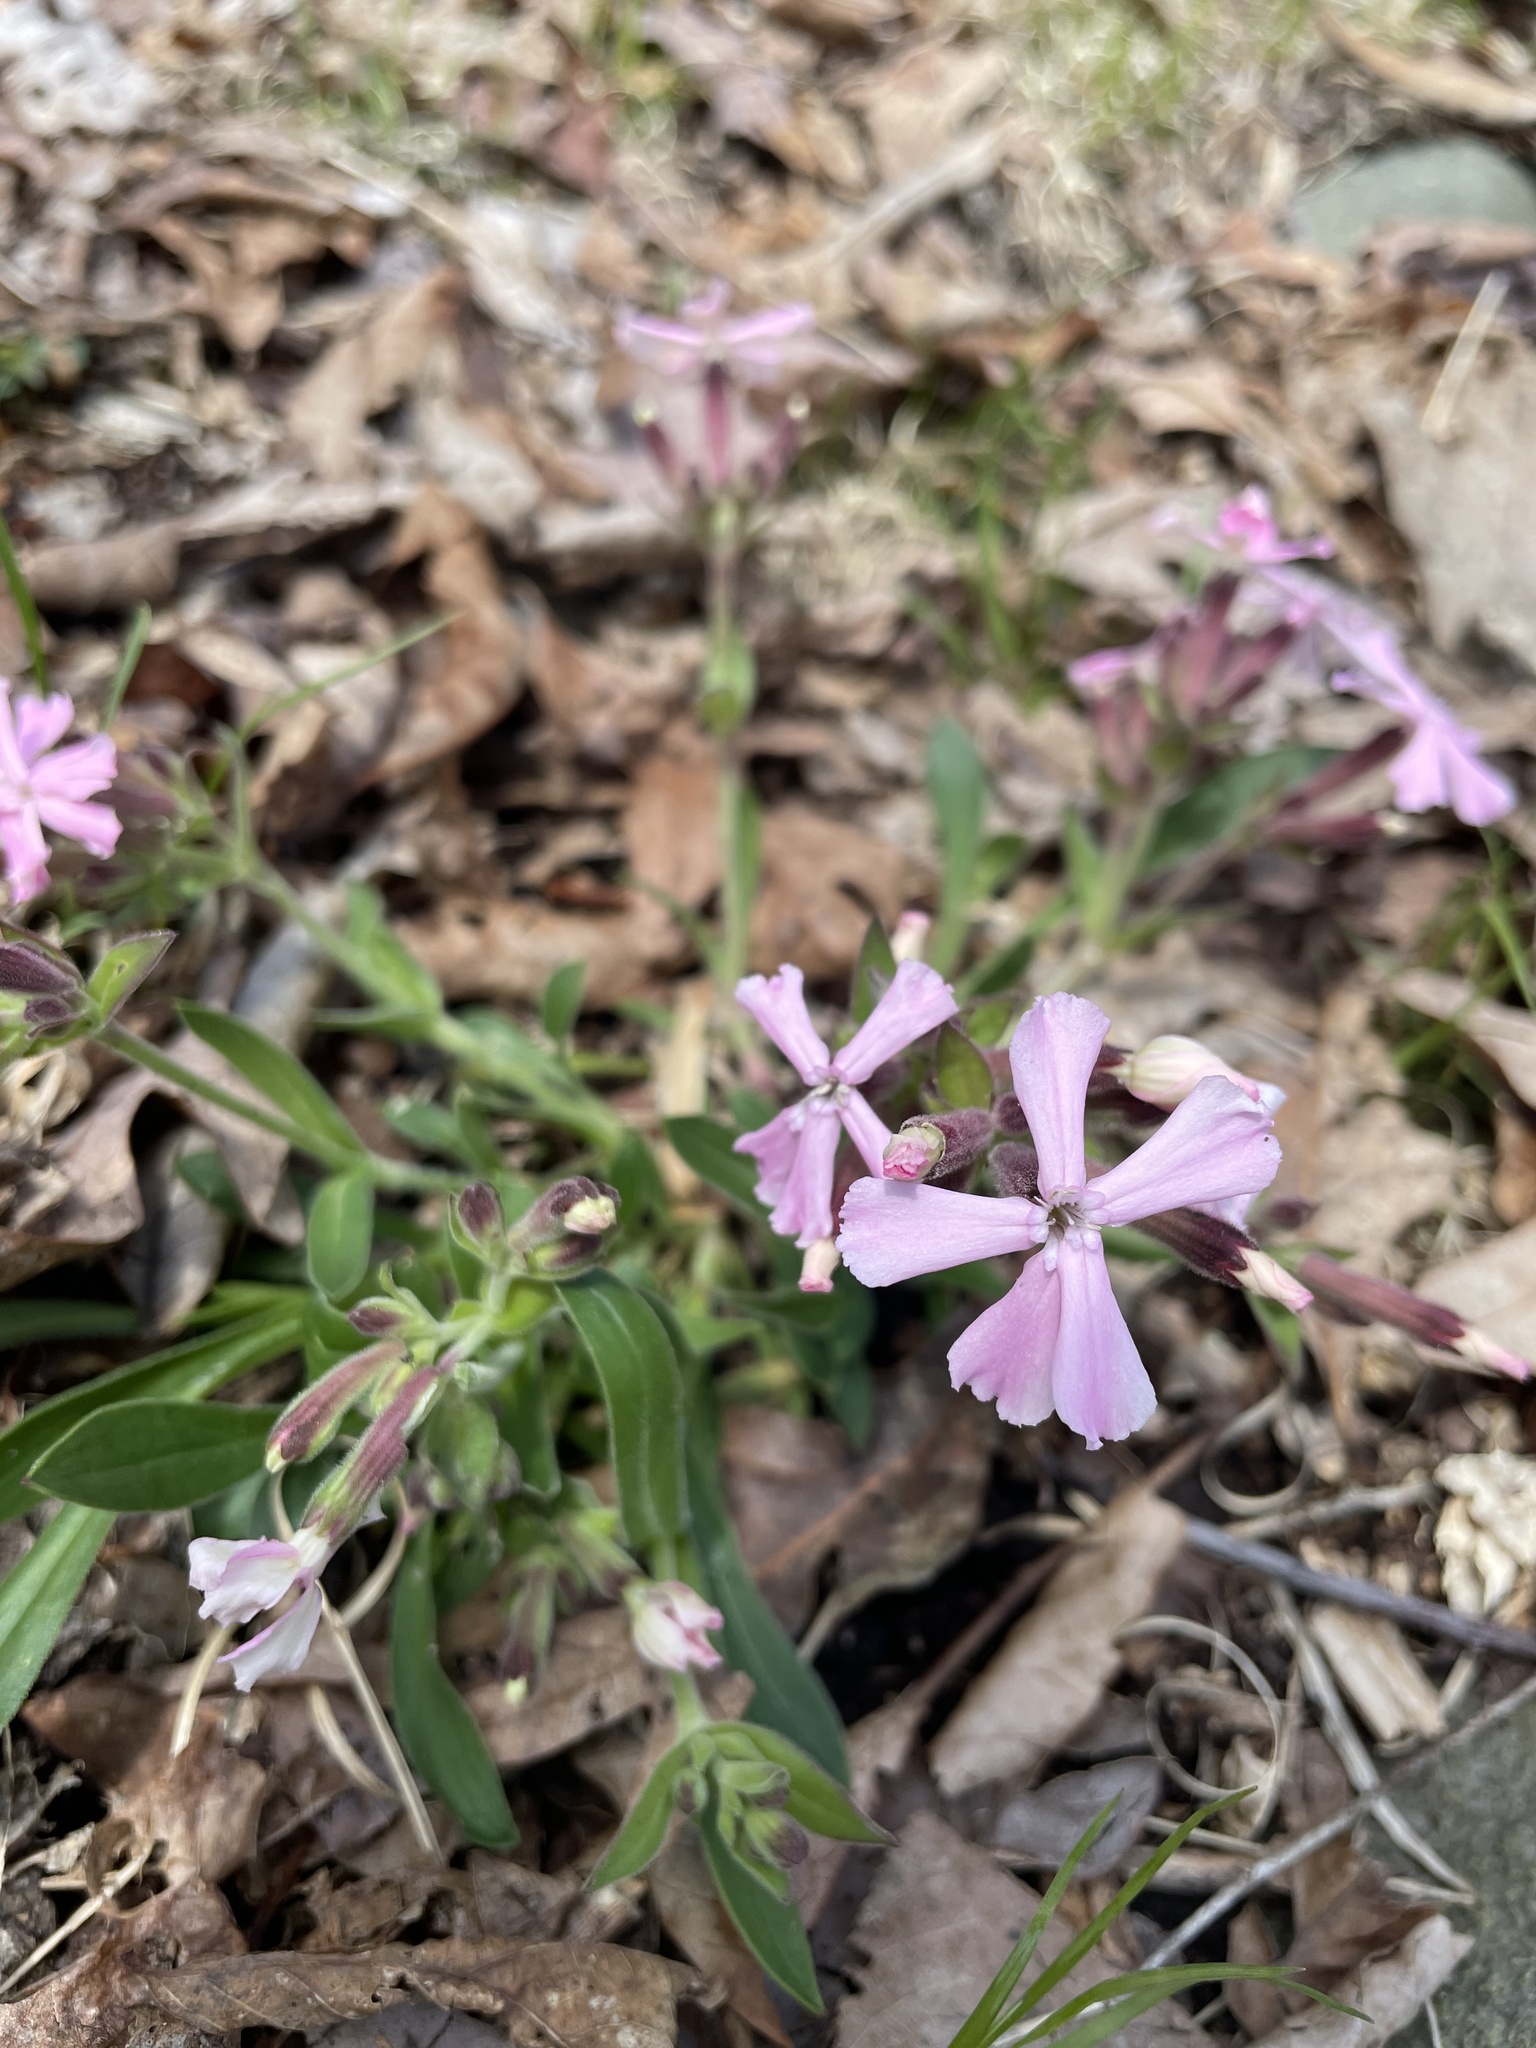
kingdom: Plantae
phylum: Tracheophyta
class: Magnoliopsida
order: Caryophyllales
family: Caryophyllaceae
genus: Silene
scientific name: Silene caroliniana
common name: Sticky catchfly
